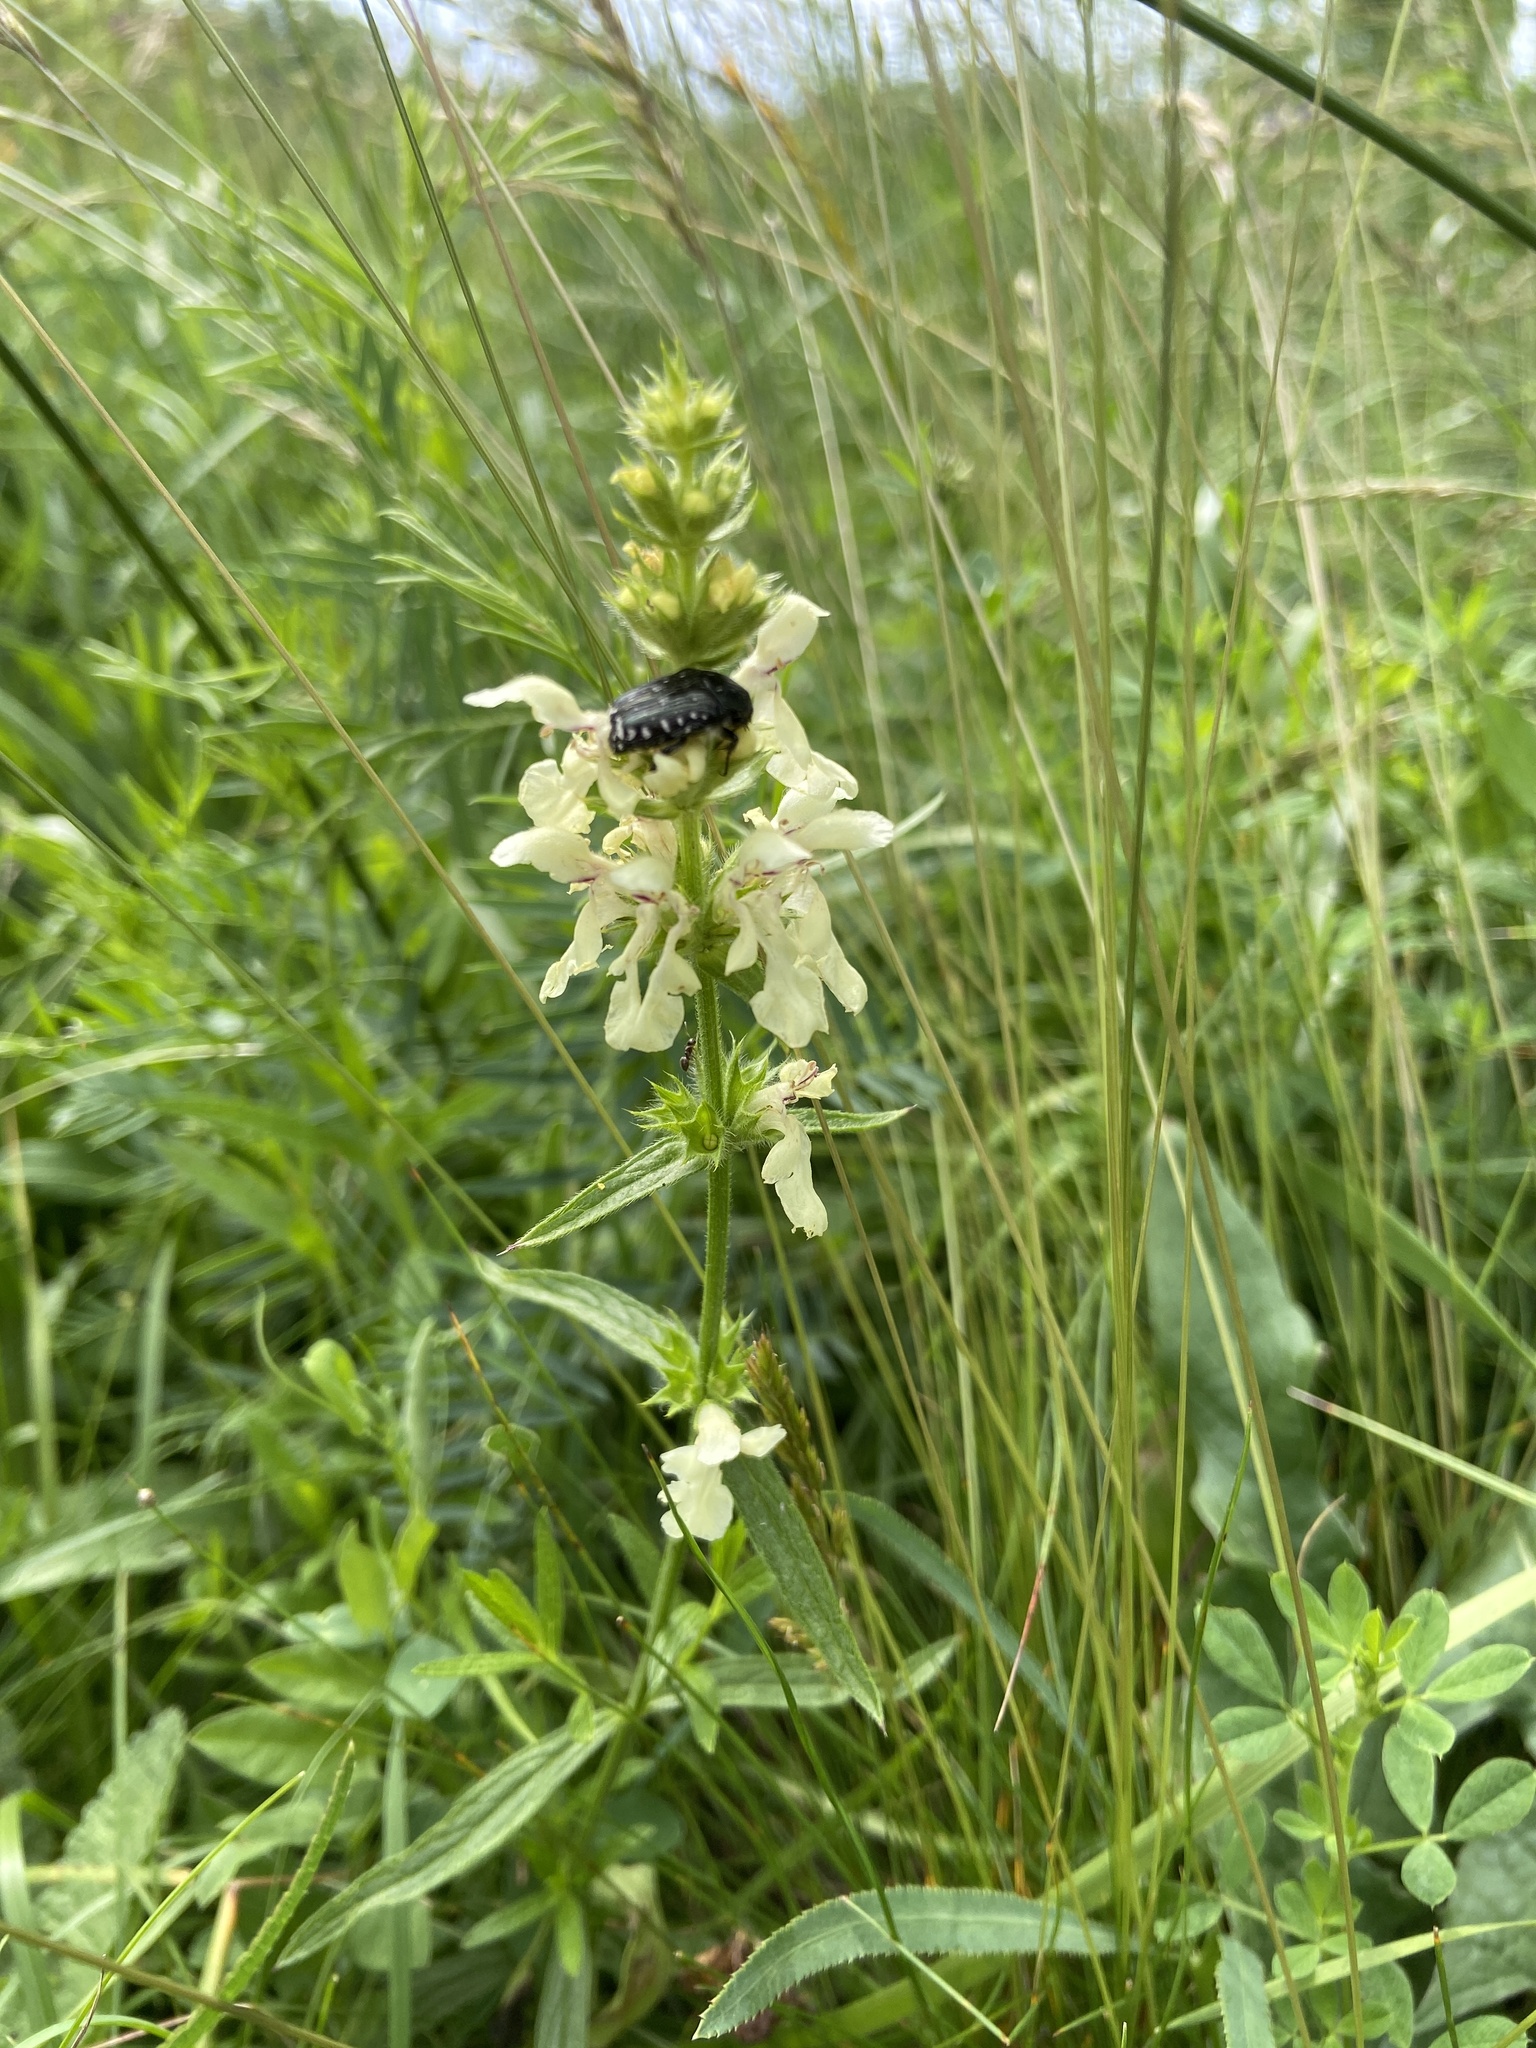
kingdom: Plantae
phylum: Tracheophyta
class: Magnoliopsida
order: Lamiales
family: Lamiaceae
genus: Stachys
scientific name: Stachys recta
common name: Perennial yellow-woundwort
